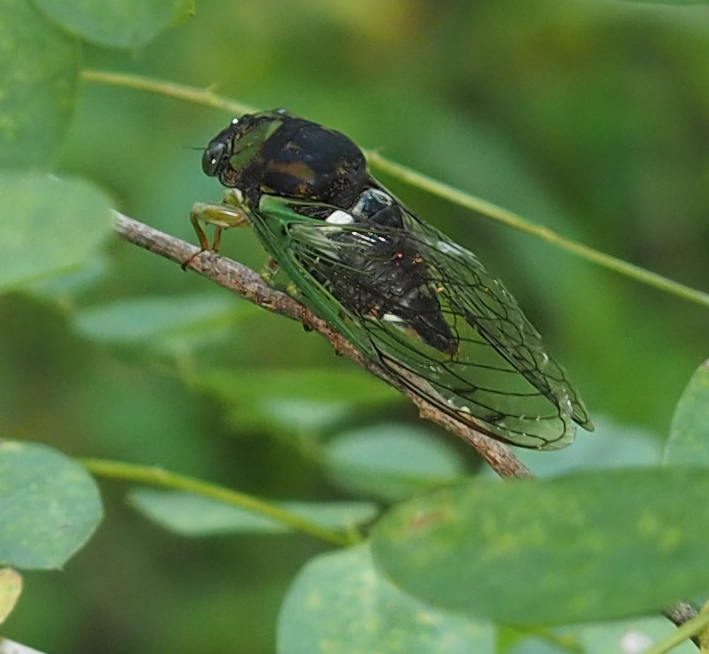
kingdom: Animalia
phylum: Arthropoda
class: Insecta
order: Hemiptera
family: Cicadidae
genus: Neotibicen
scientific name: Neotibicen tibicen
